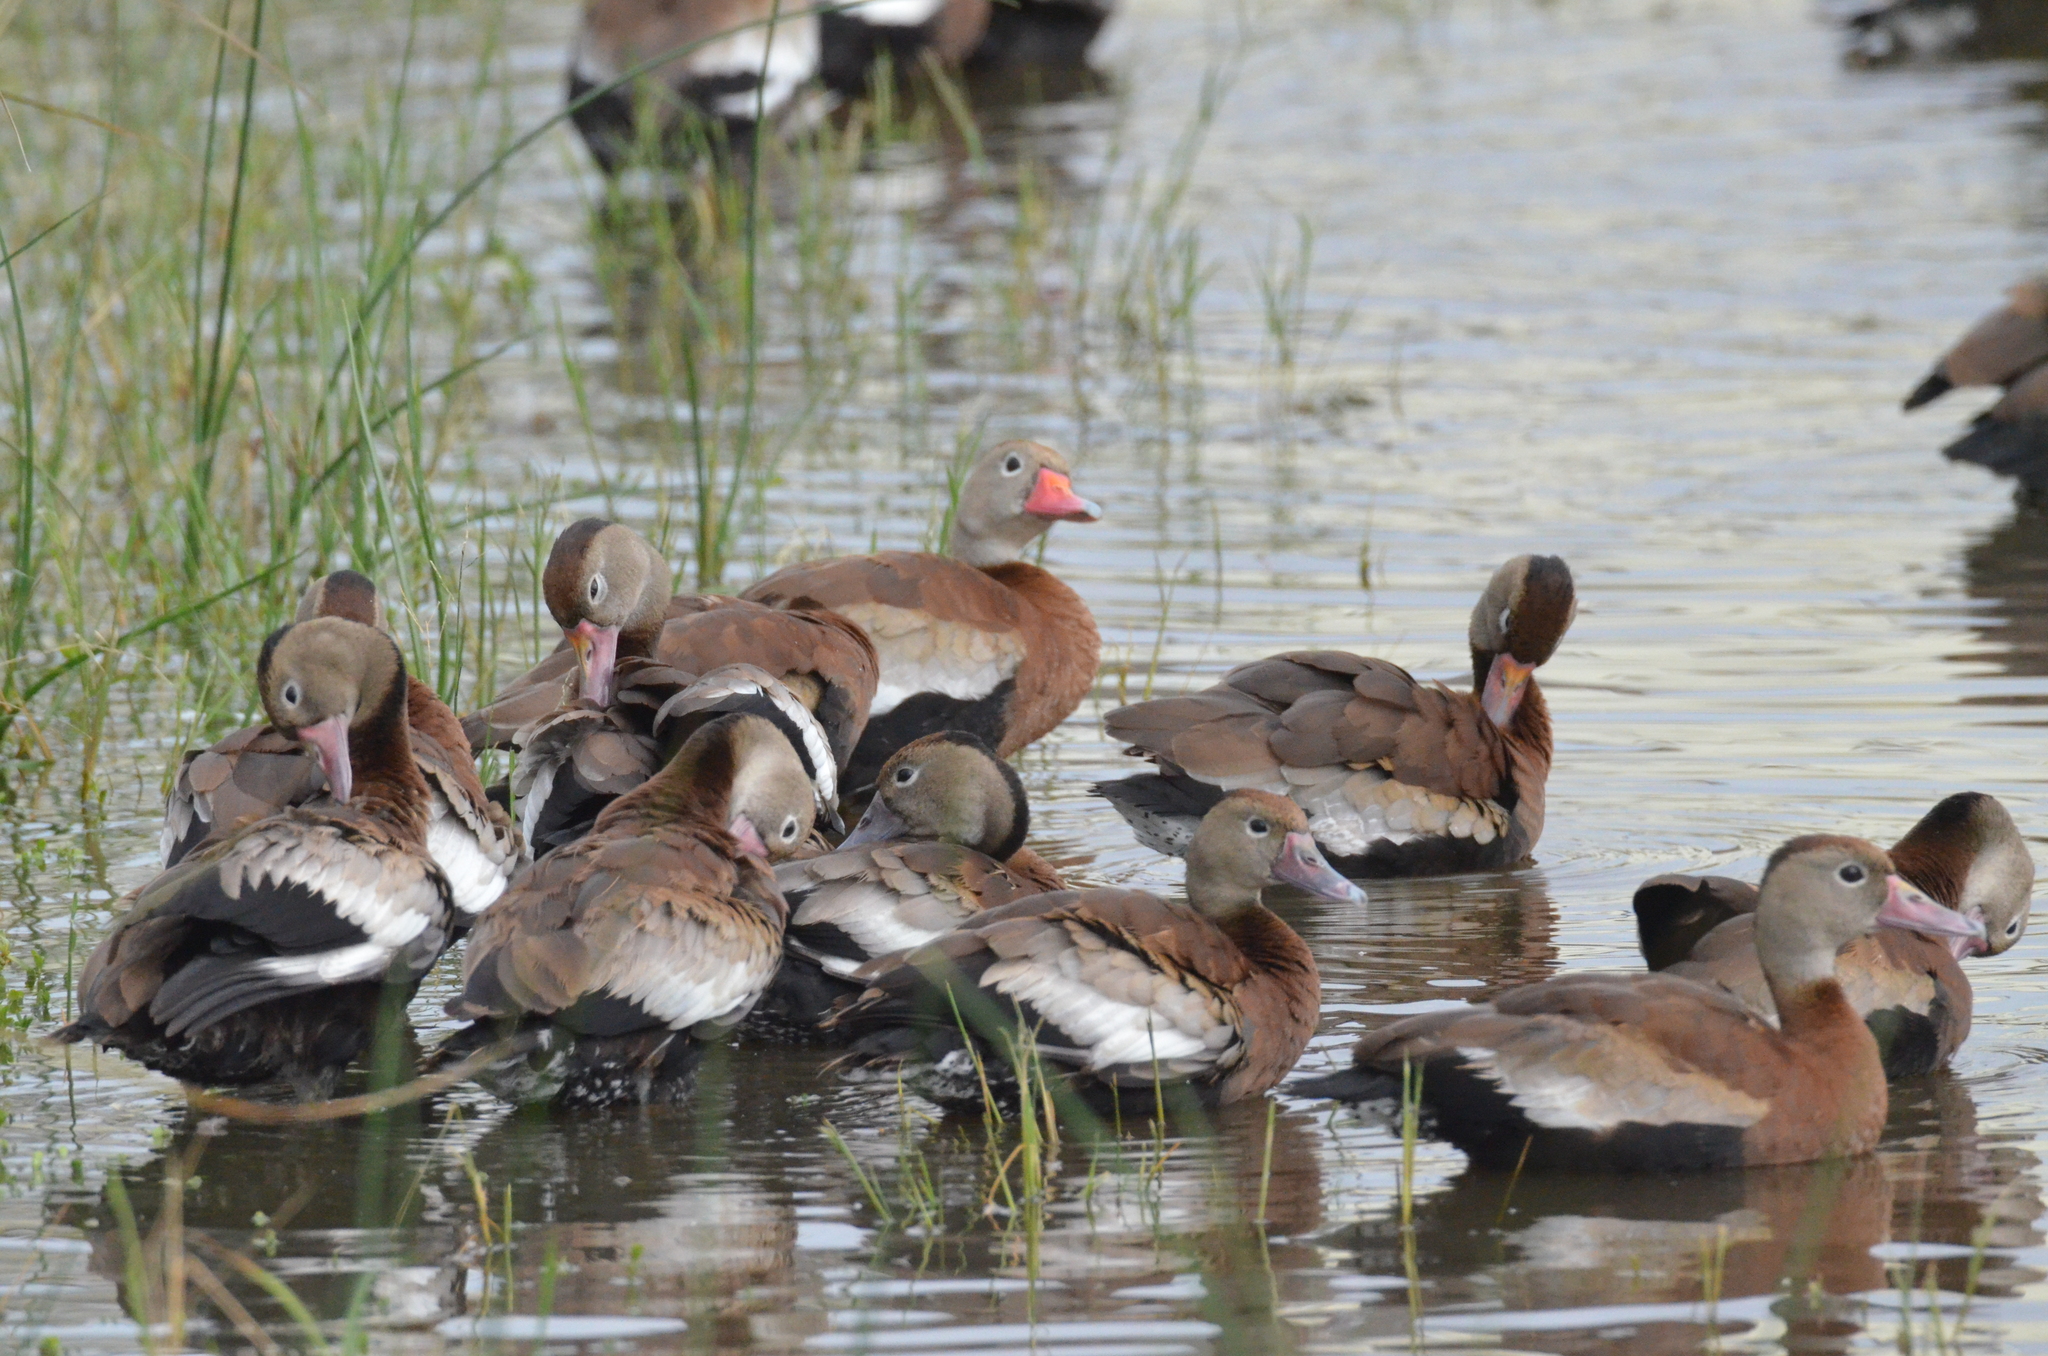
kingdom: Animalia
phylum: Chordata
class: Aves
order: Anseriformes
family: Anatidae
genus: Dendrocygna
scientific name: Dendrocygna autumnalis
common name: Black-bellied whistling duck
